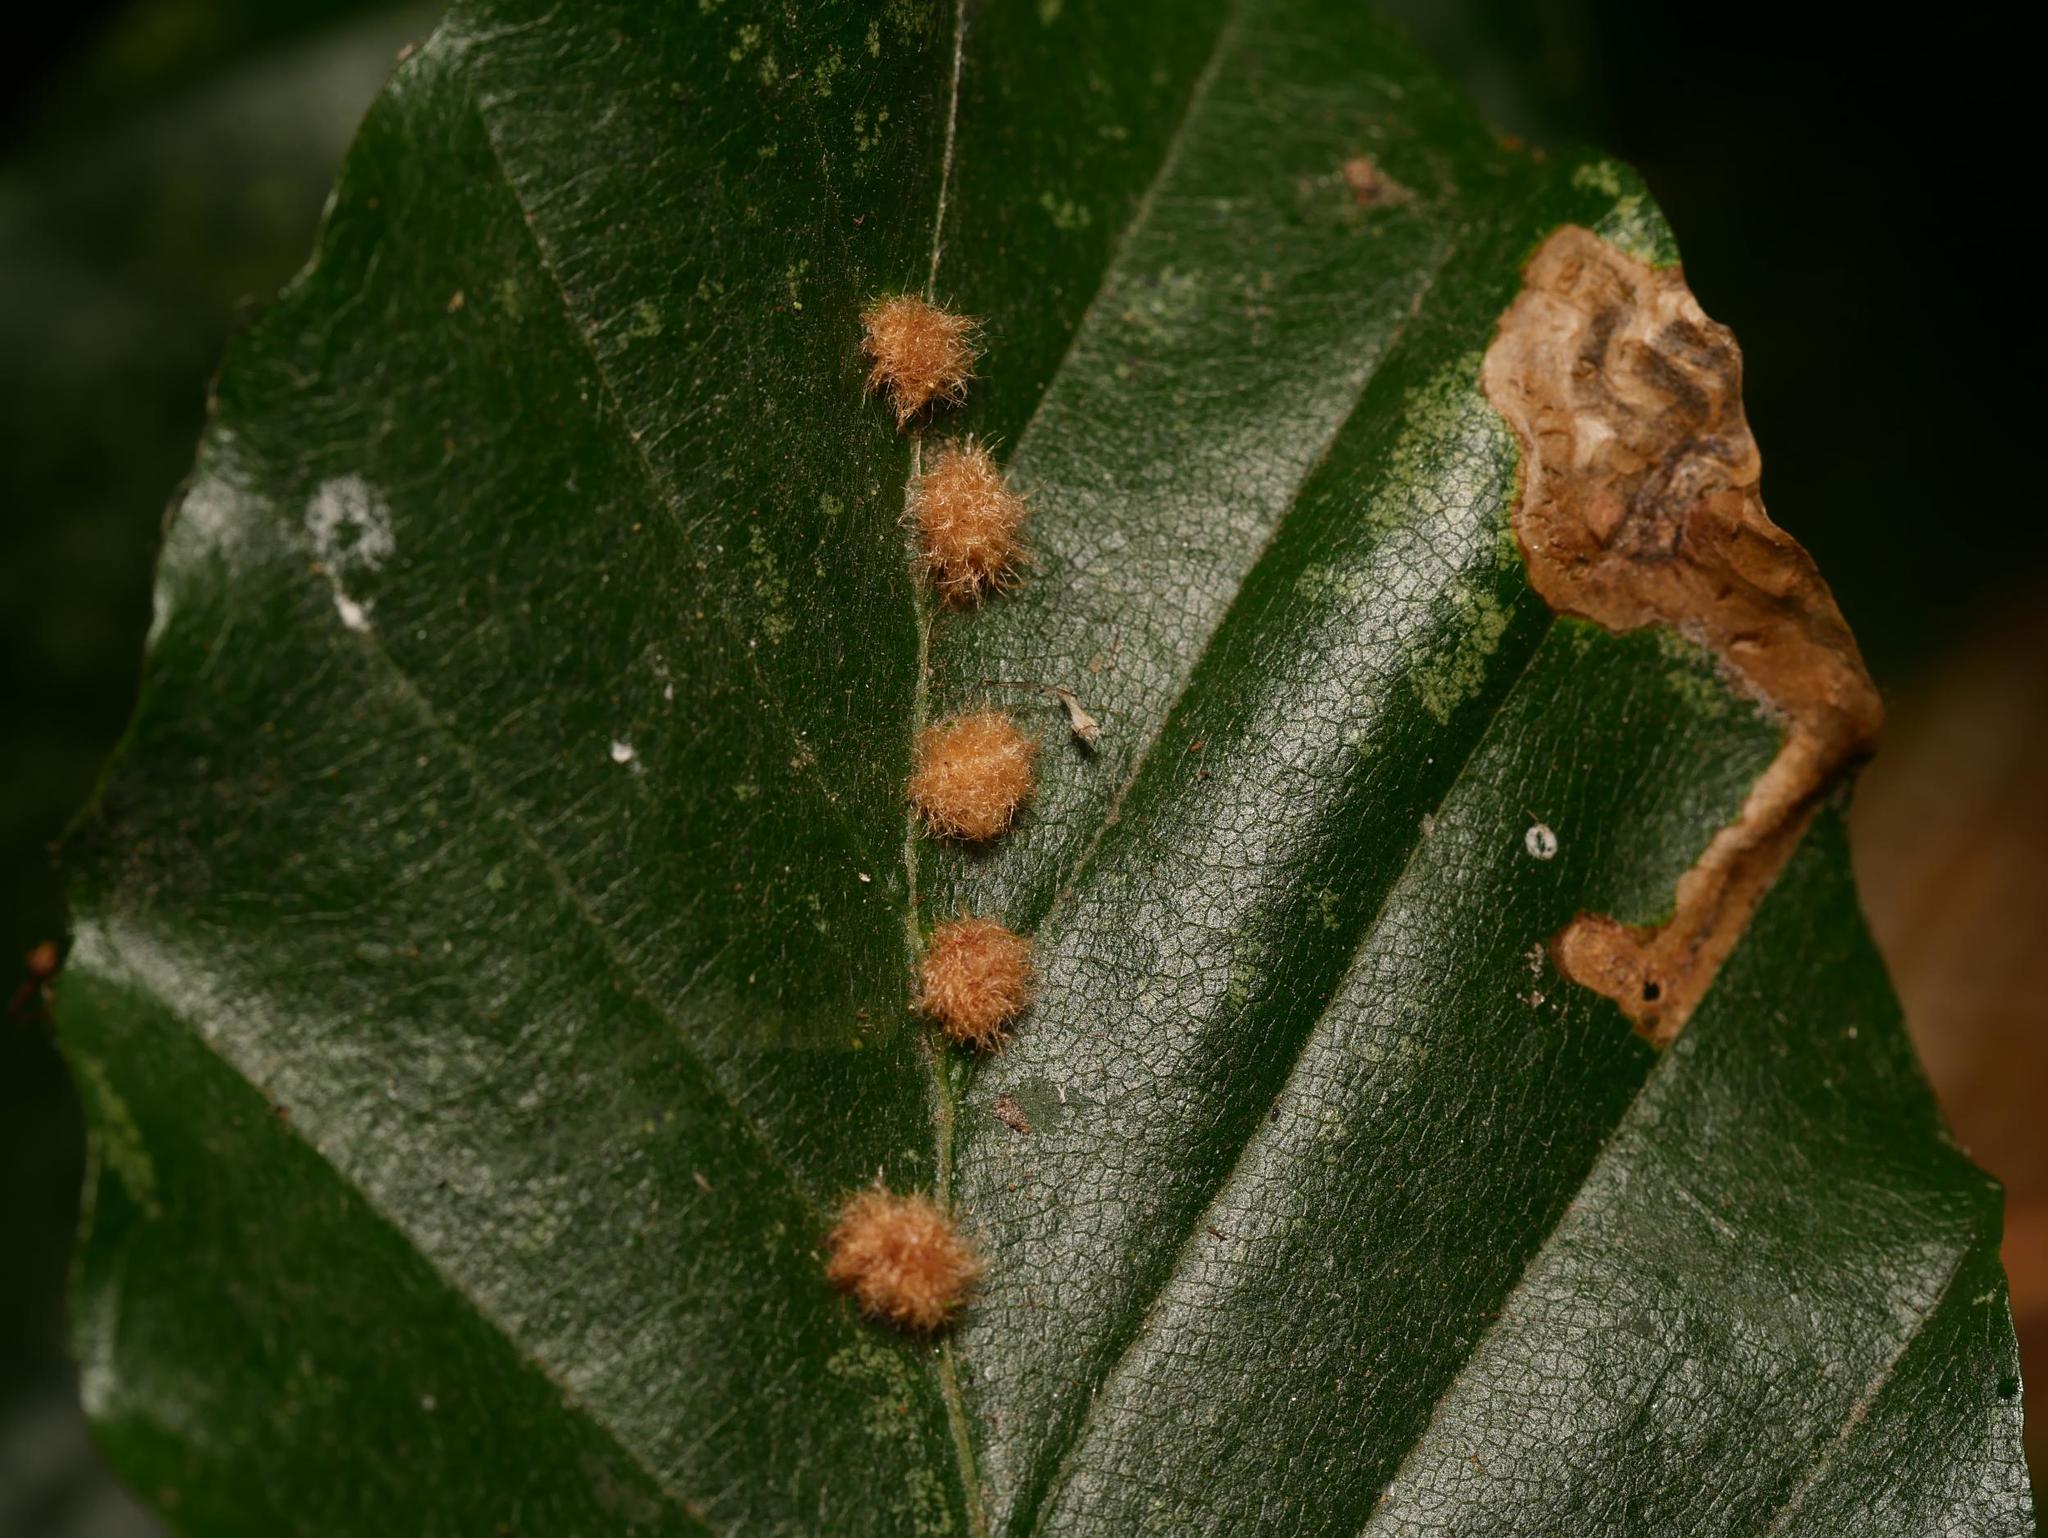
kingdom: Animalia
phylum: Arthropoda
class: Insecta
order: Diptera
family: Cecidomyiidae
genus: Hartigiola
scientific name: Hartigiola annulipes
